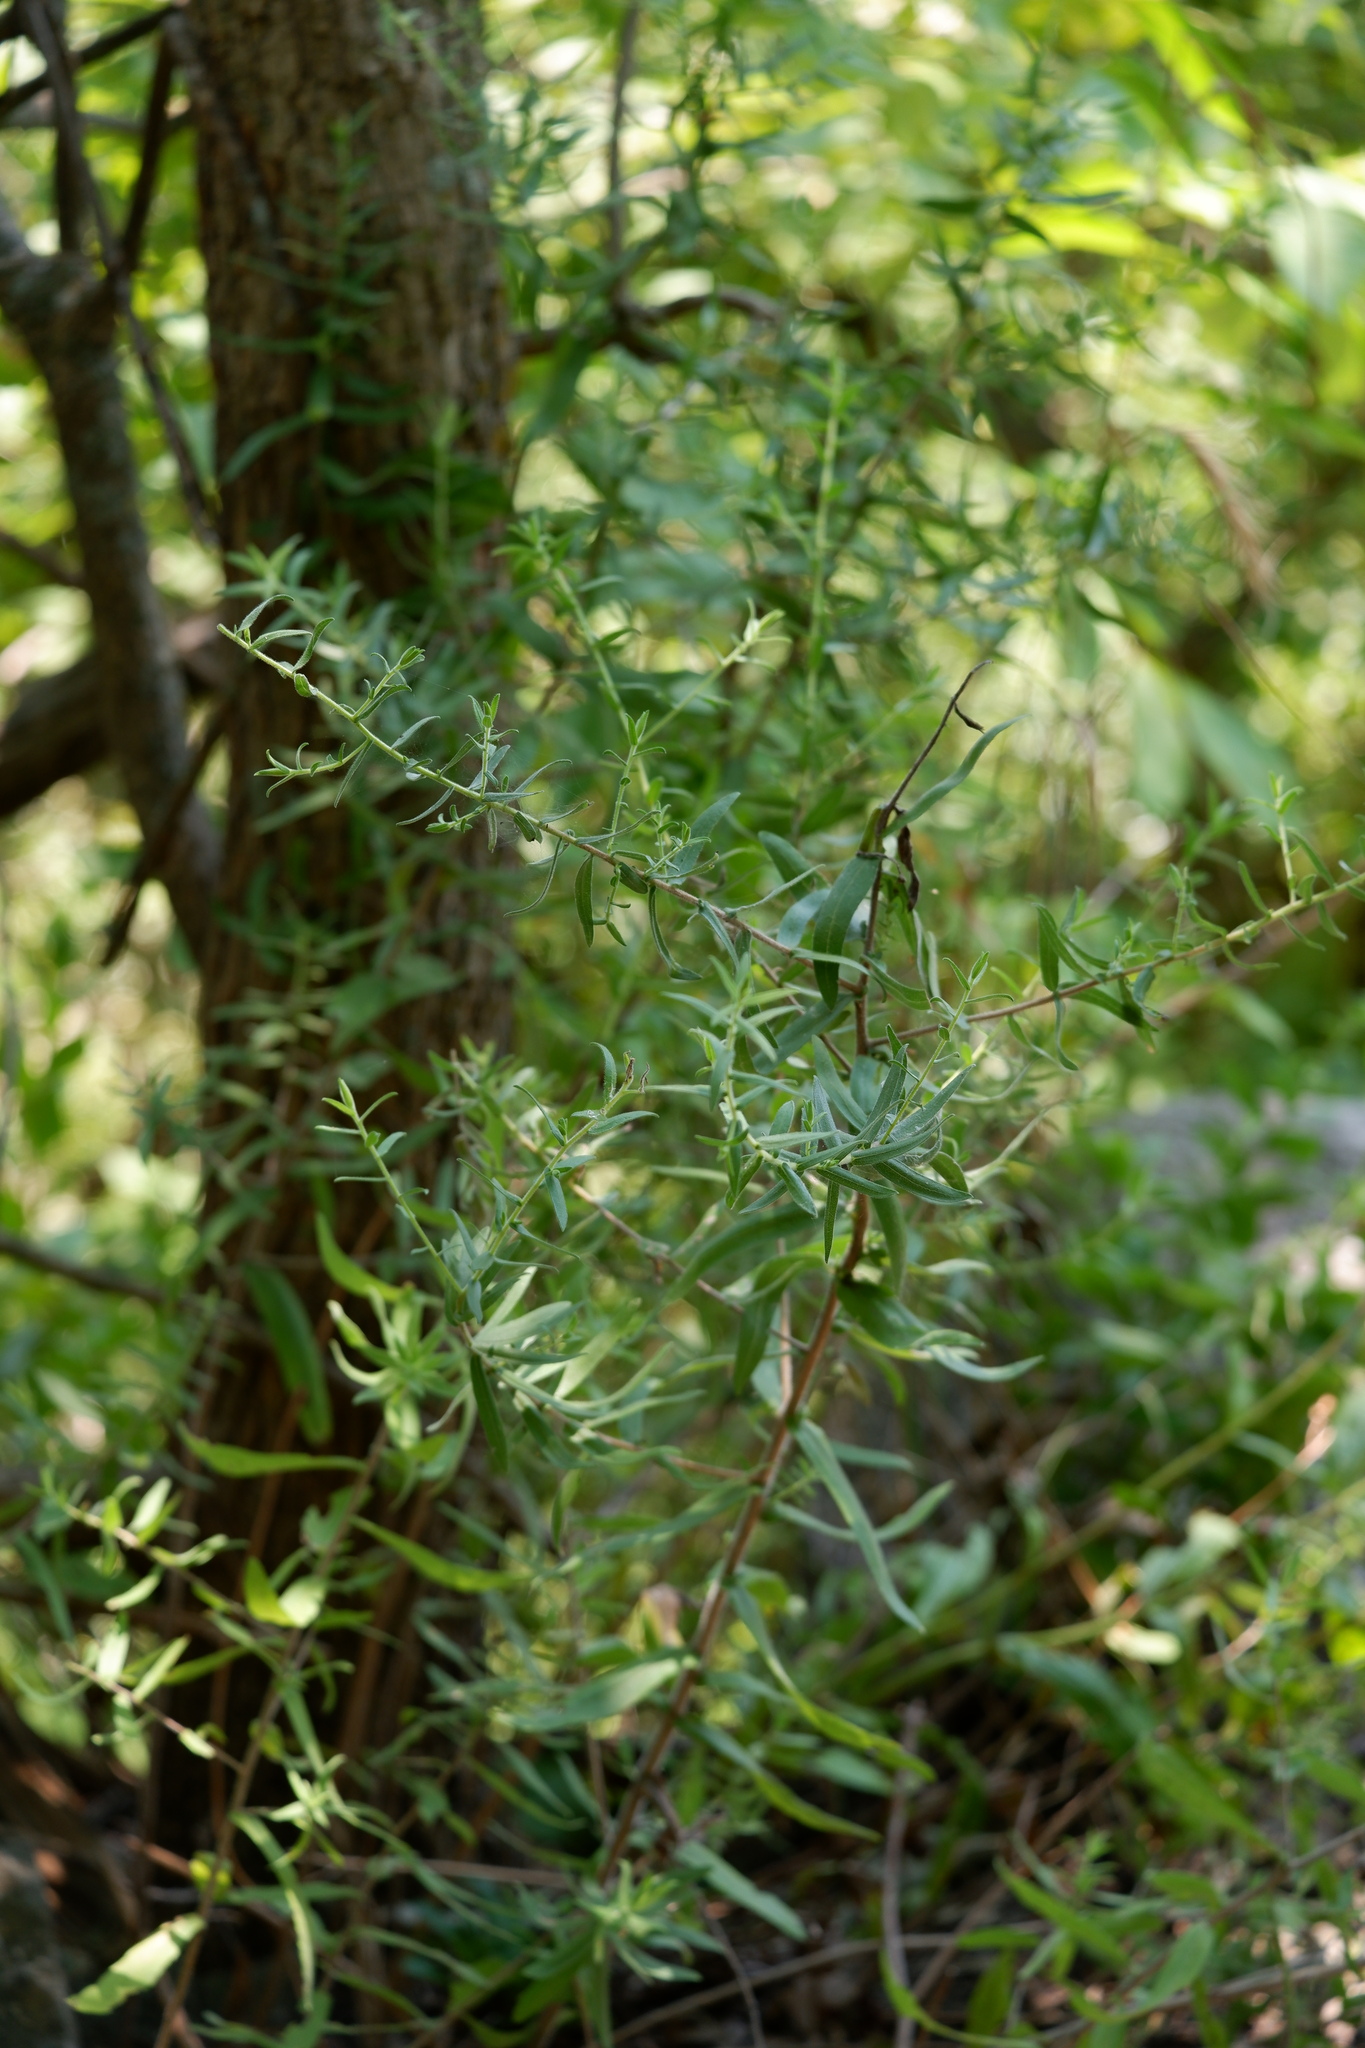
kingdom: Plantae
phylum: Tracheophyta
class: Magnoliopsida
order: Asterales
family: Asteraceae
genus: Symphyotrichum
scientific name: Symphyotrichum oblongifolium
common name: Aromatic aster
